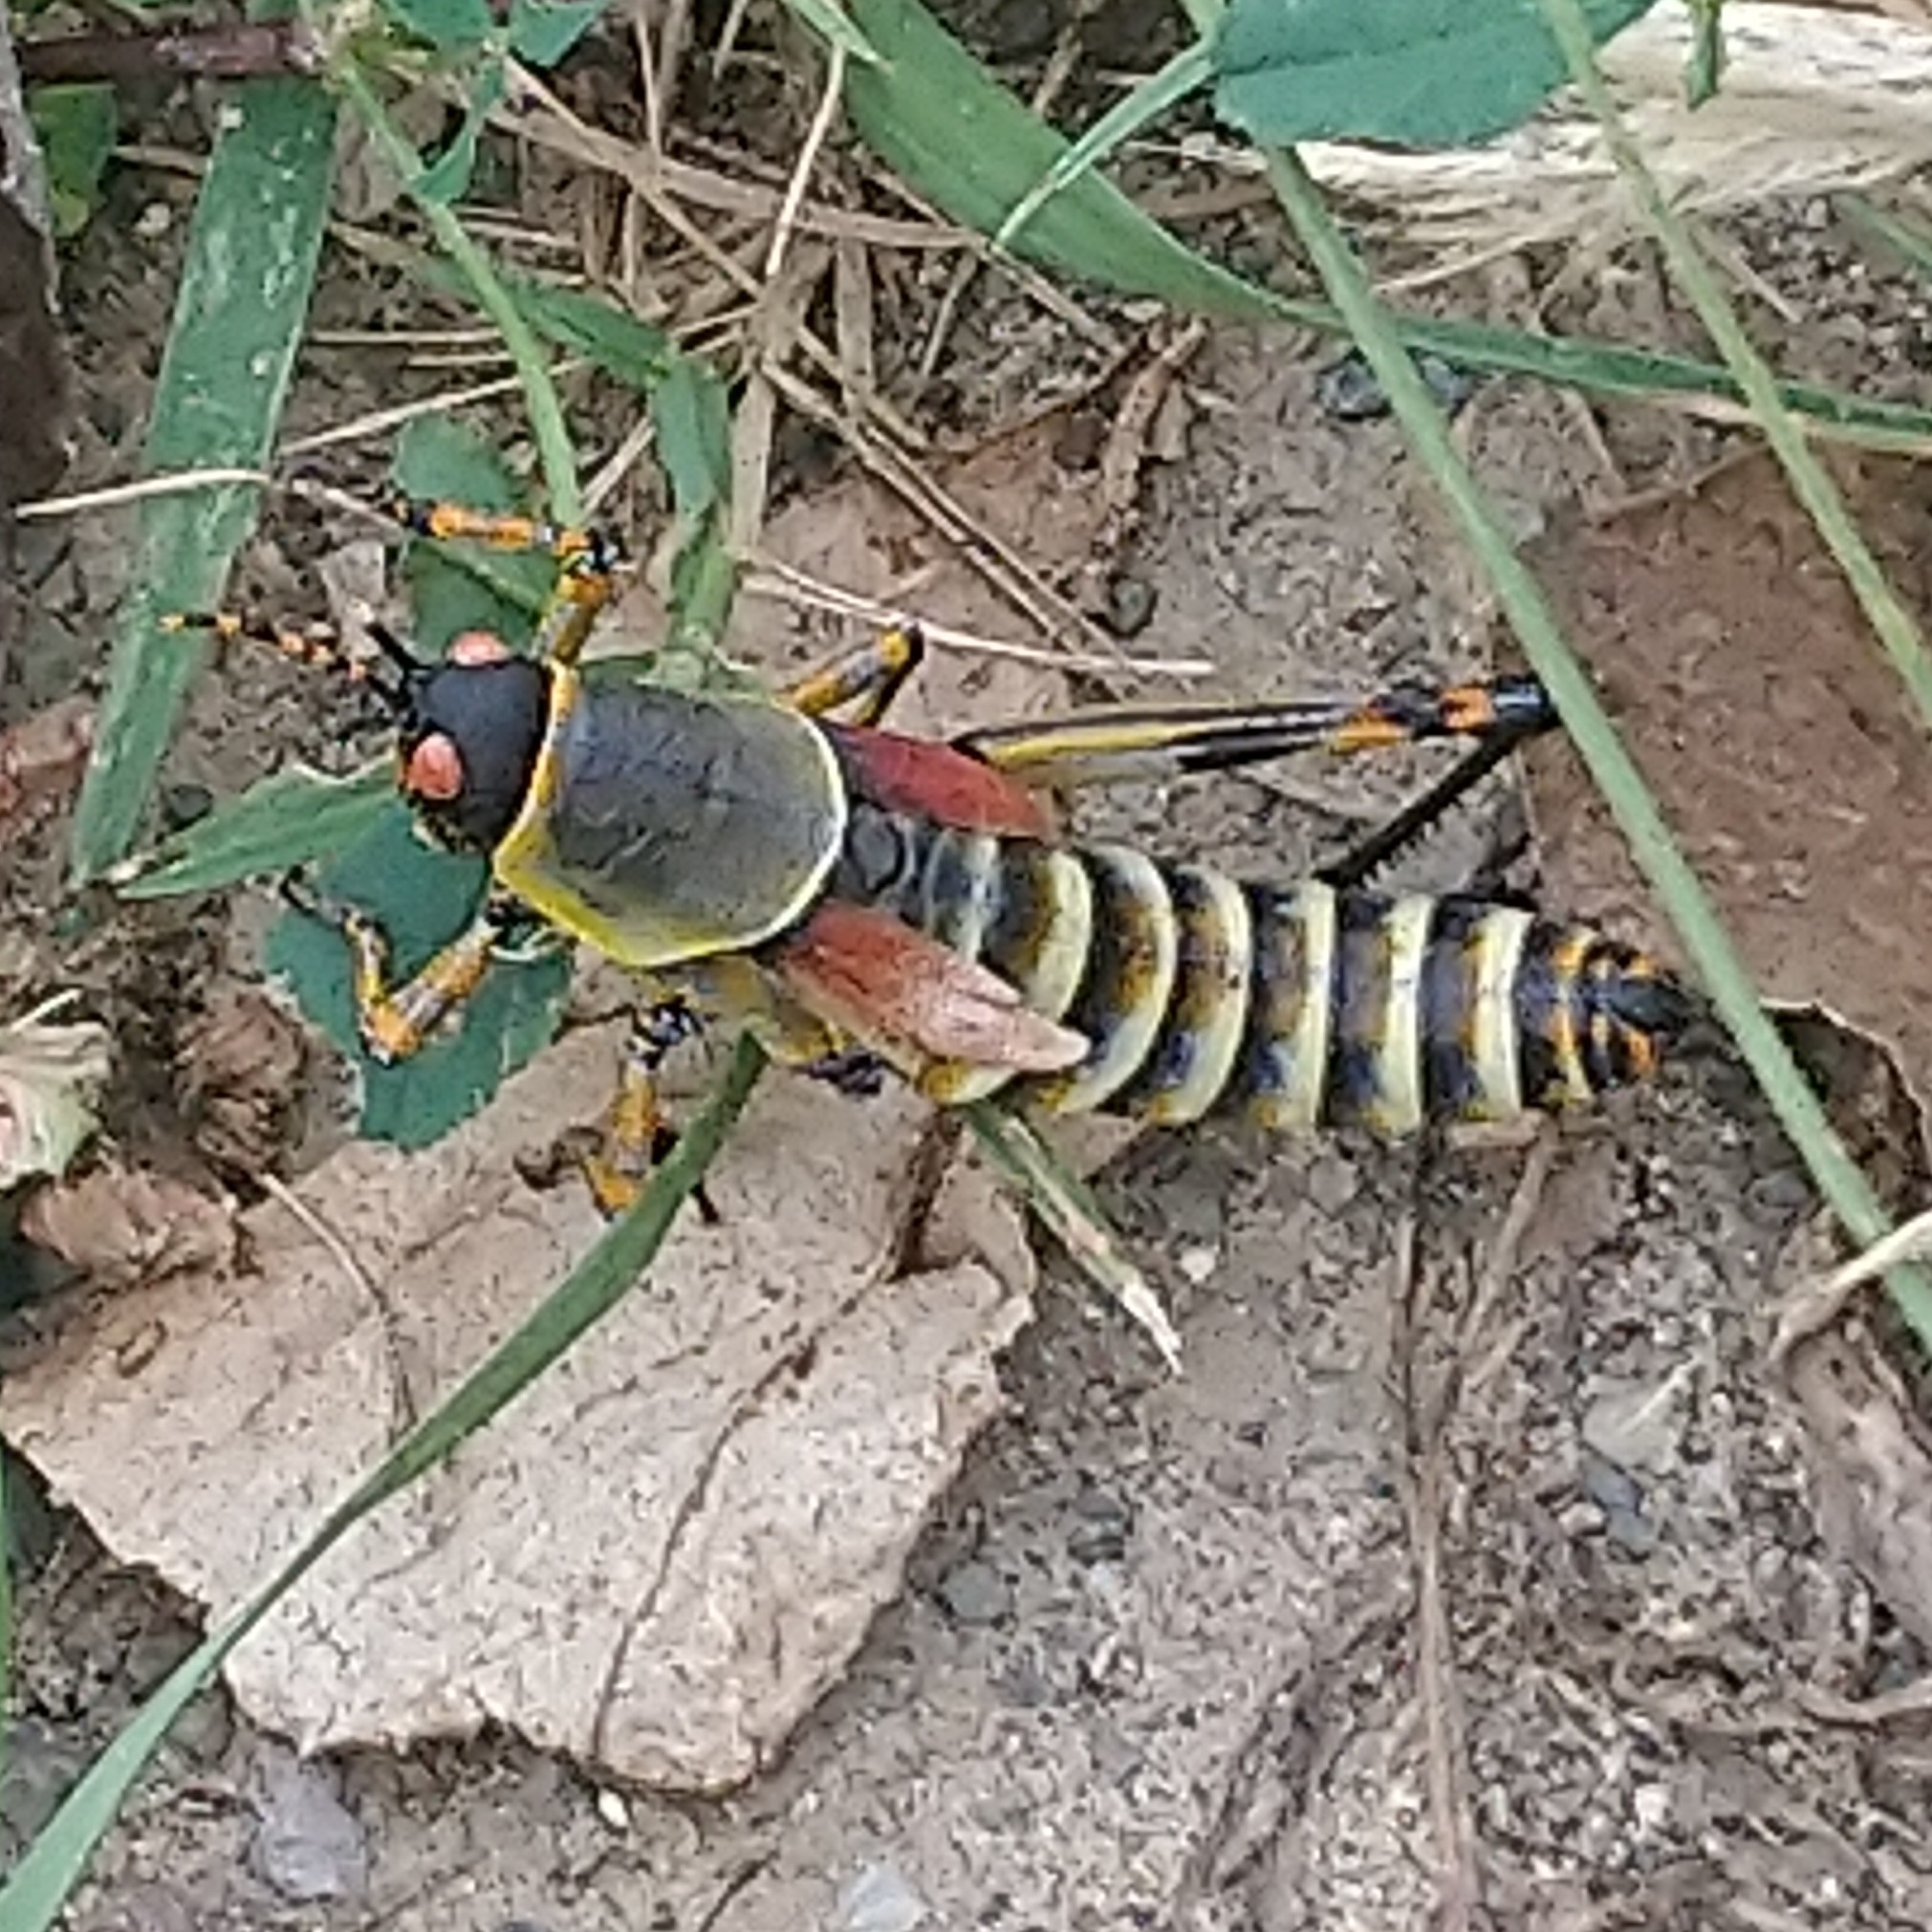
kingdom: Animalia
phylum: Arthropoda
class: Insecta
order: Orthoptera
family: Pyrgomorphidae
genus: Zonocerus
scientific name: Zonocerus elegans
